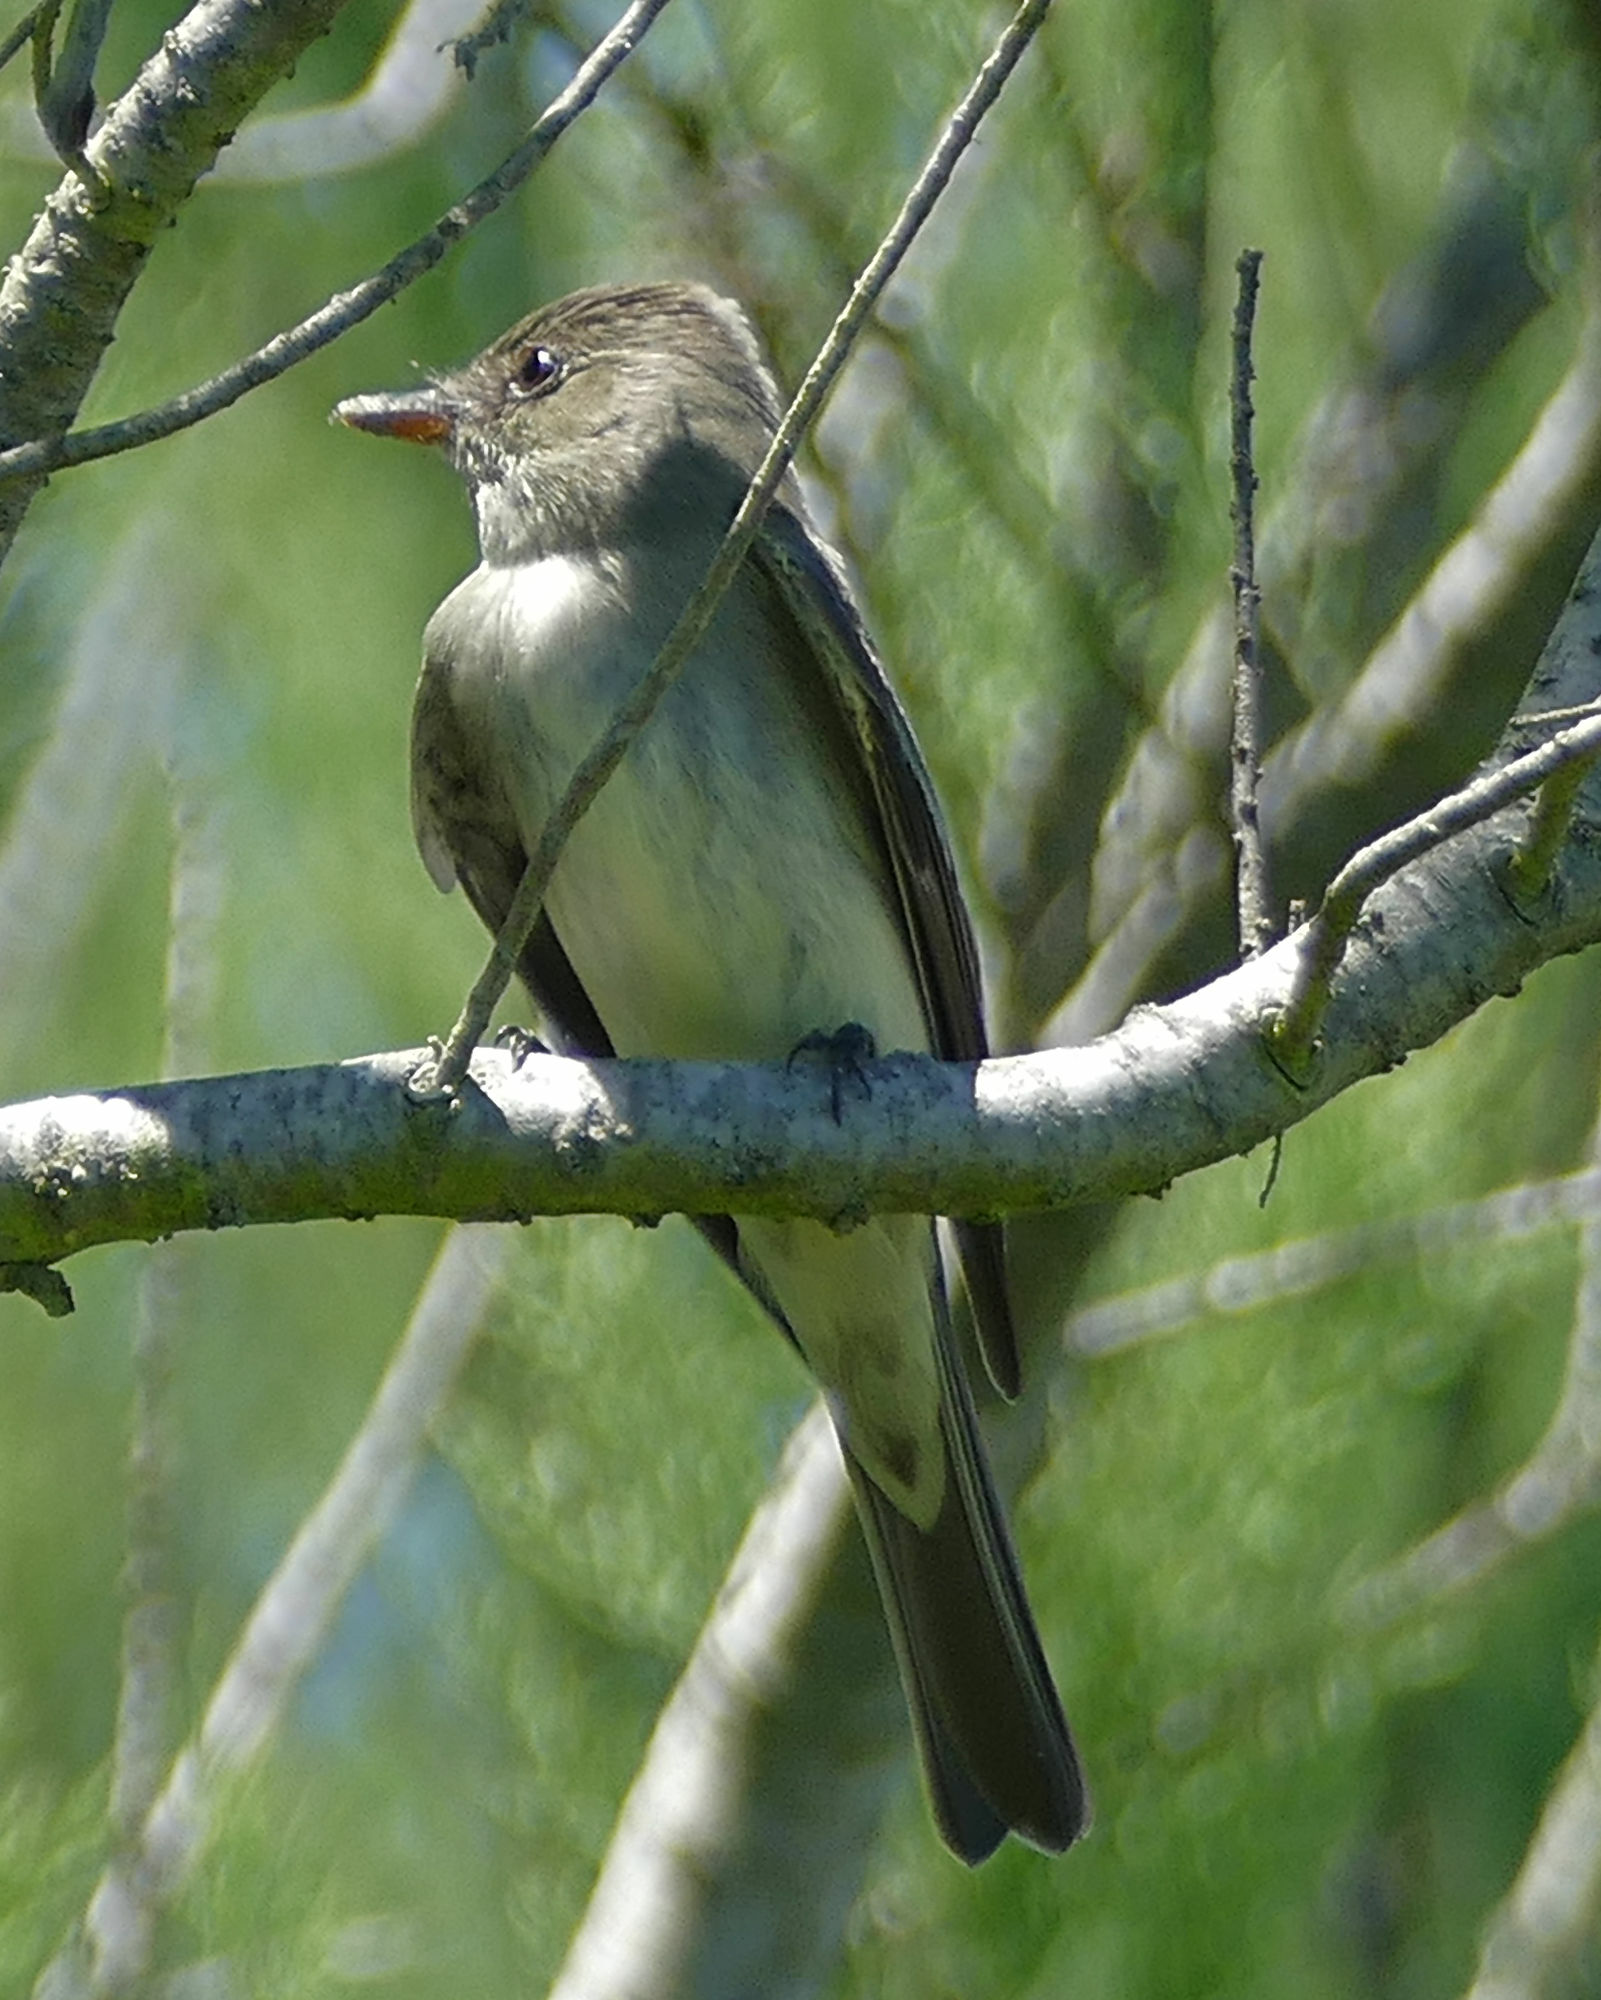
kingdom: Animalia
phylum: Chordata
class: Aves
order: Passeriformes
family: Tyrannidae
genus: Contopus
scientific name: Contopus virens
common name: Eastern wood-pewee
